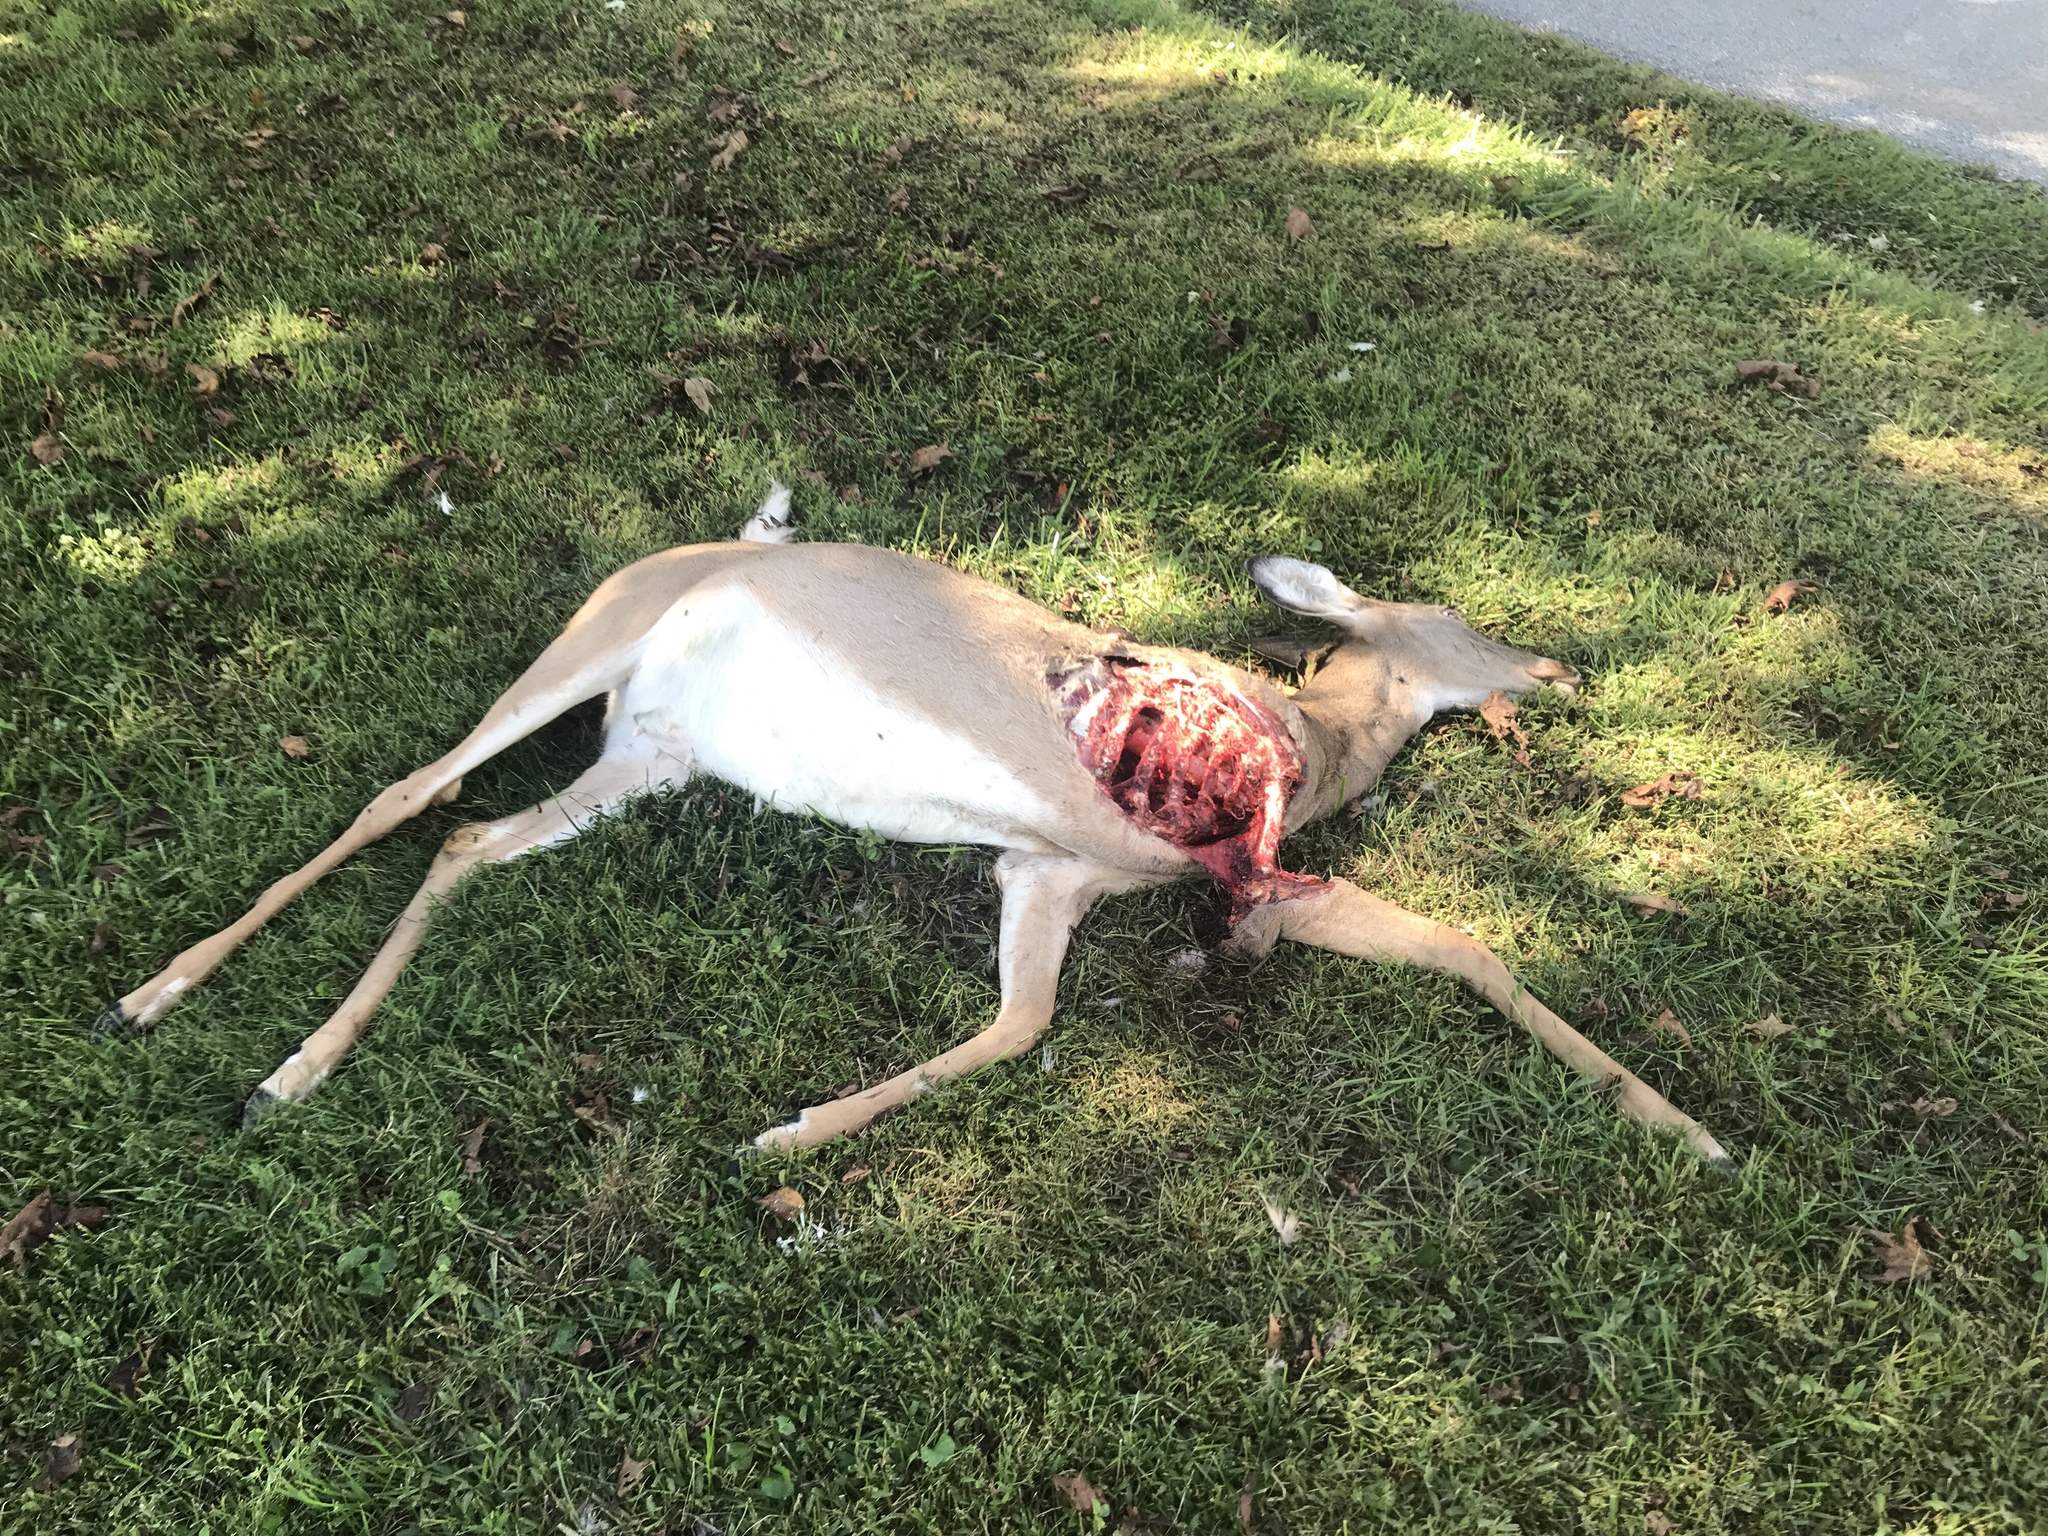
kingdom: Animalia
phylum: Chordata
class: Mammalia
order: Artiodactyla
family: Cervidae
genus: Odocoileus
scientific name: Odocoileus virginianus
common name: White-tailed deer
